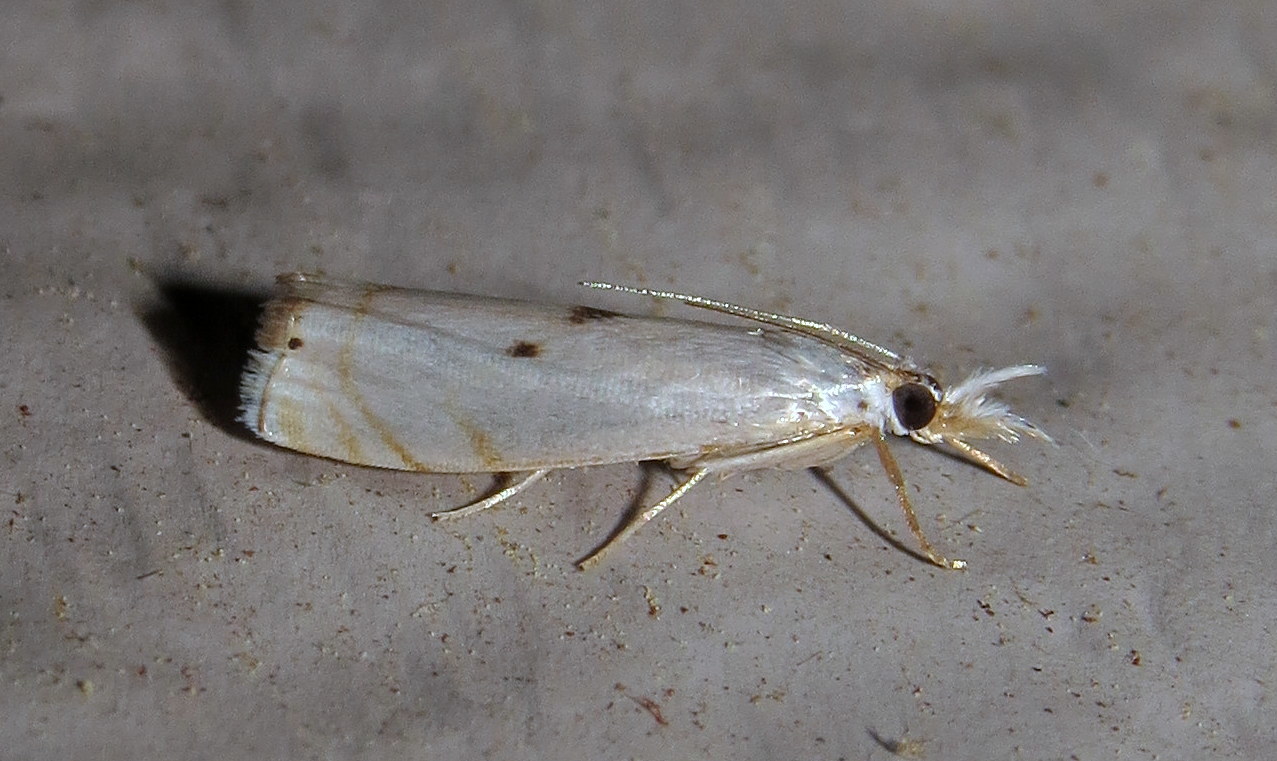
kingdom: Animalia
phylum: Arthropoda
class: Insecta
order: Lepidoptera
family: Crambidae
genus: Microcrambus
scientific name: Microcrambus biguttellus
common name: Gold-stripe grass-veneer moth
